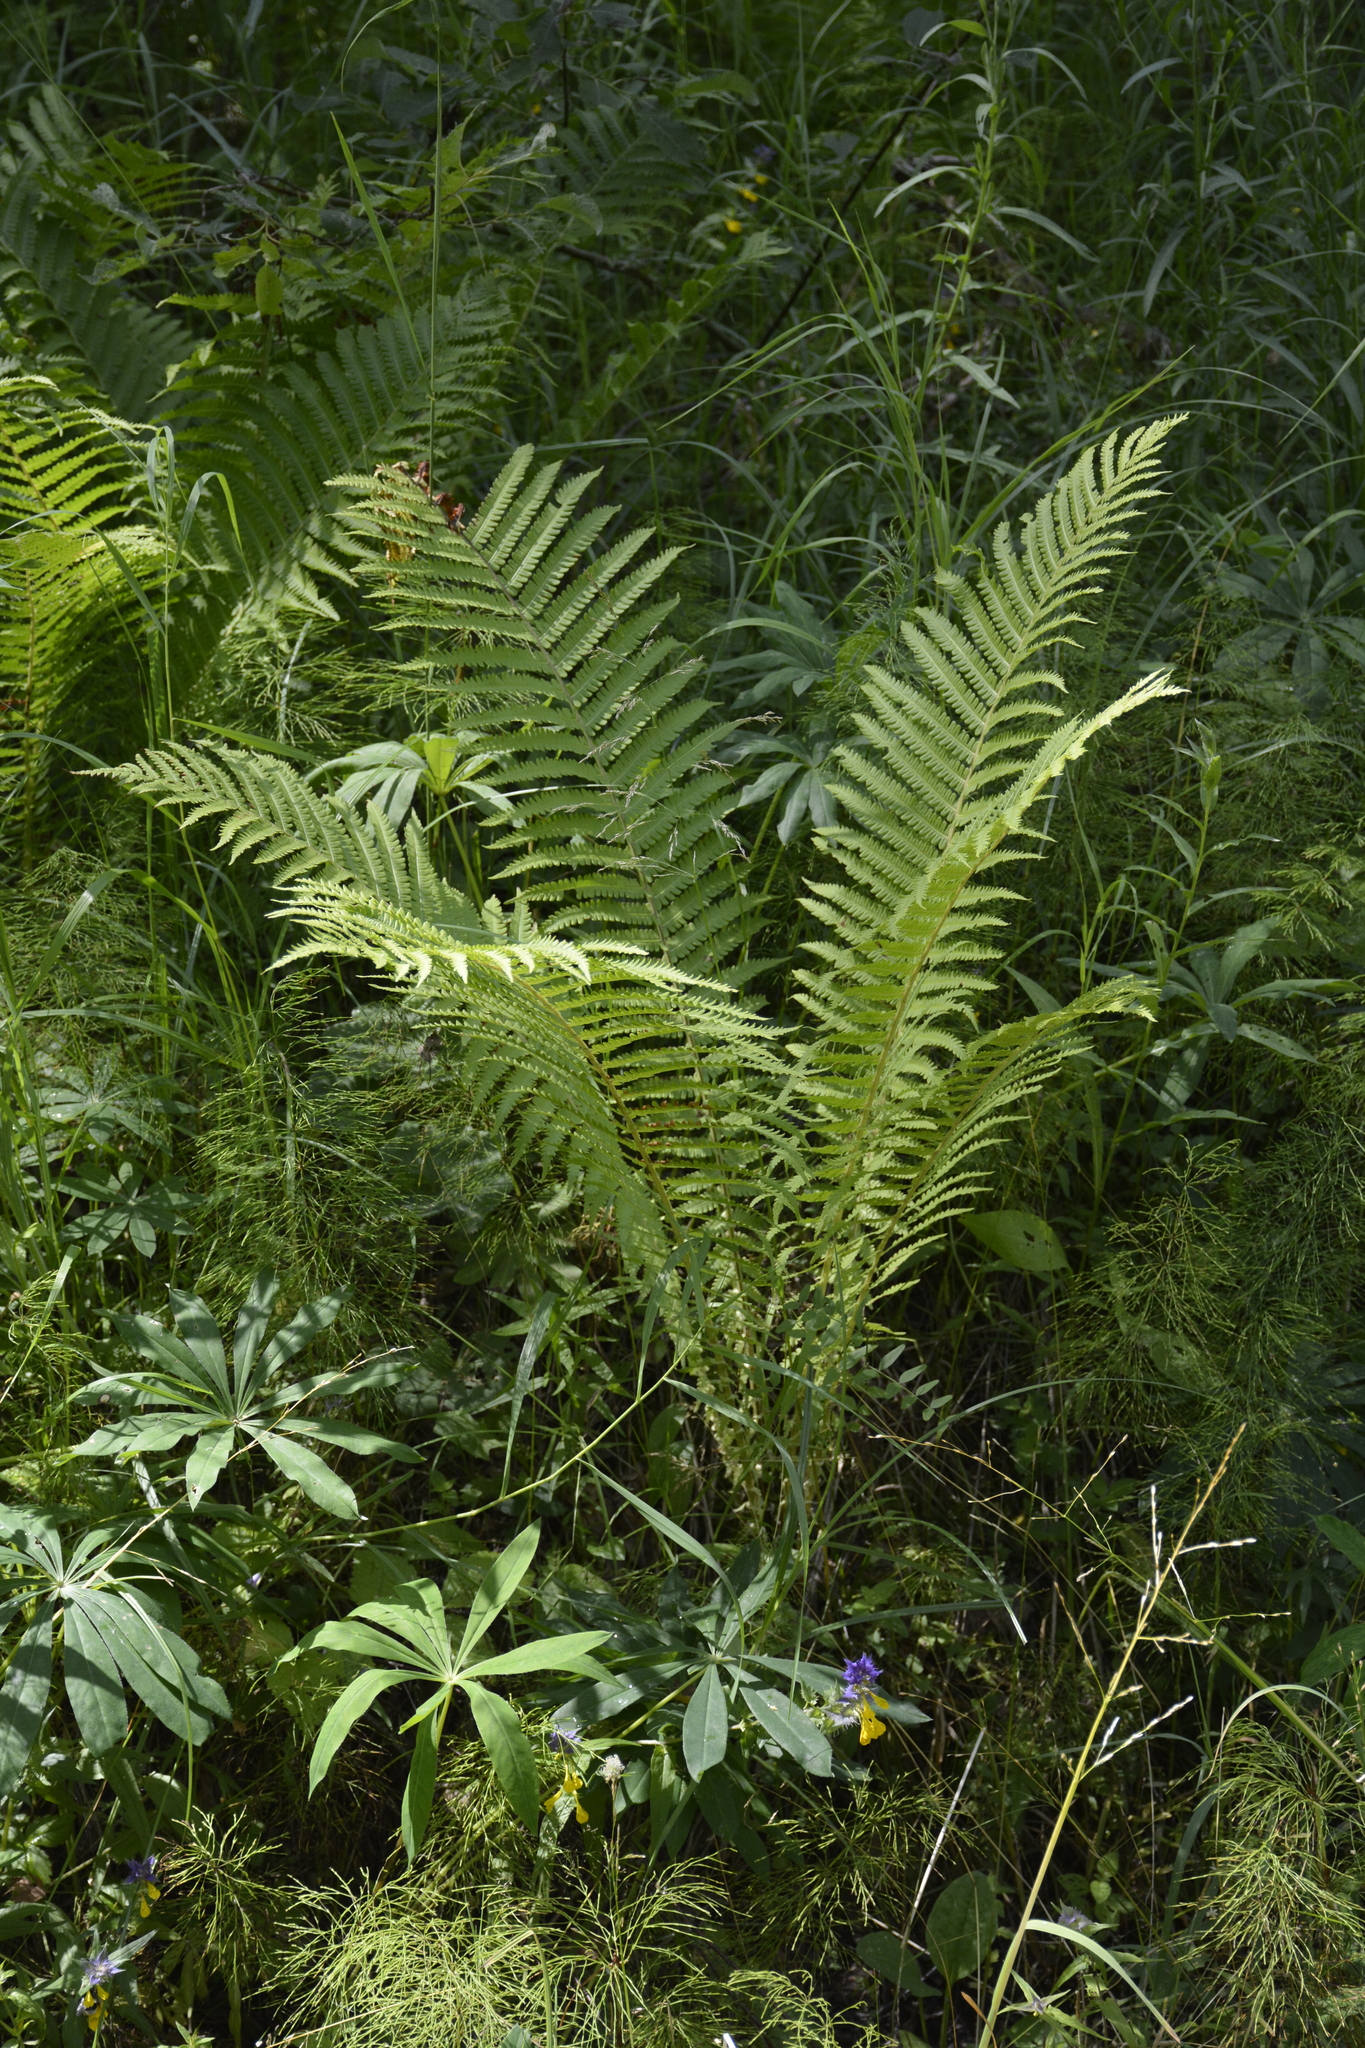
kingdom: Plantae
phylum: Tracheophyta
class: Polypodiopsida
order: Polypodiales
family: Onocleaceae
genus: Matteuccia
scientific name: Matteuccia struthiopteris
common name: Ostrich fern
